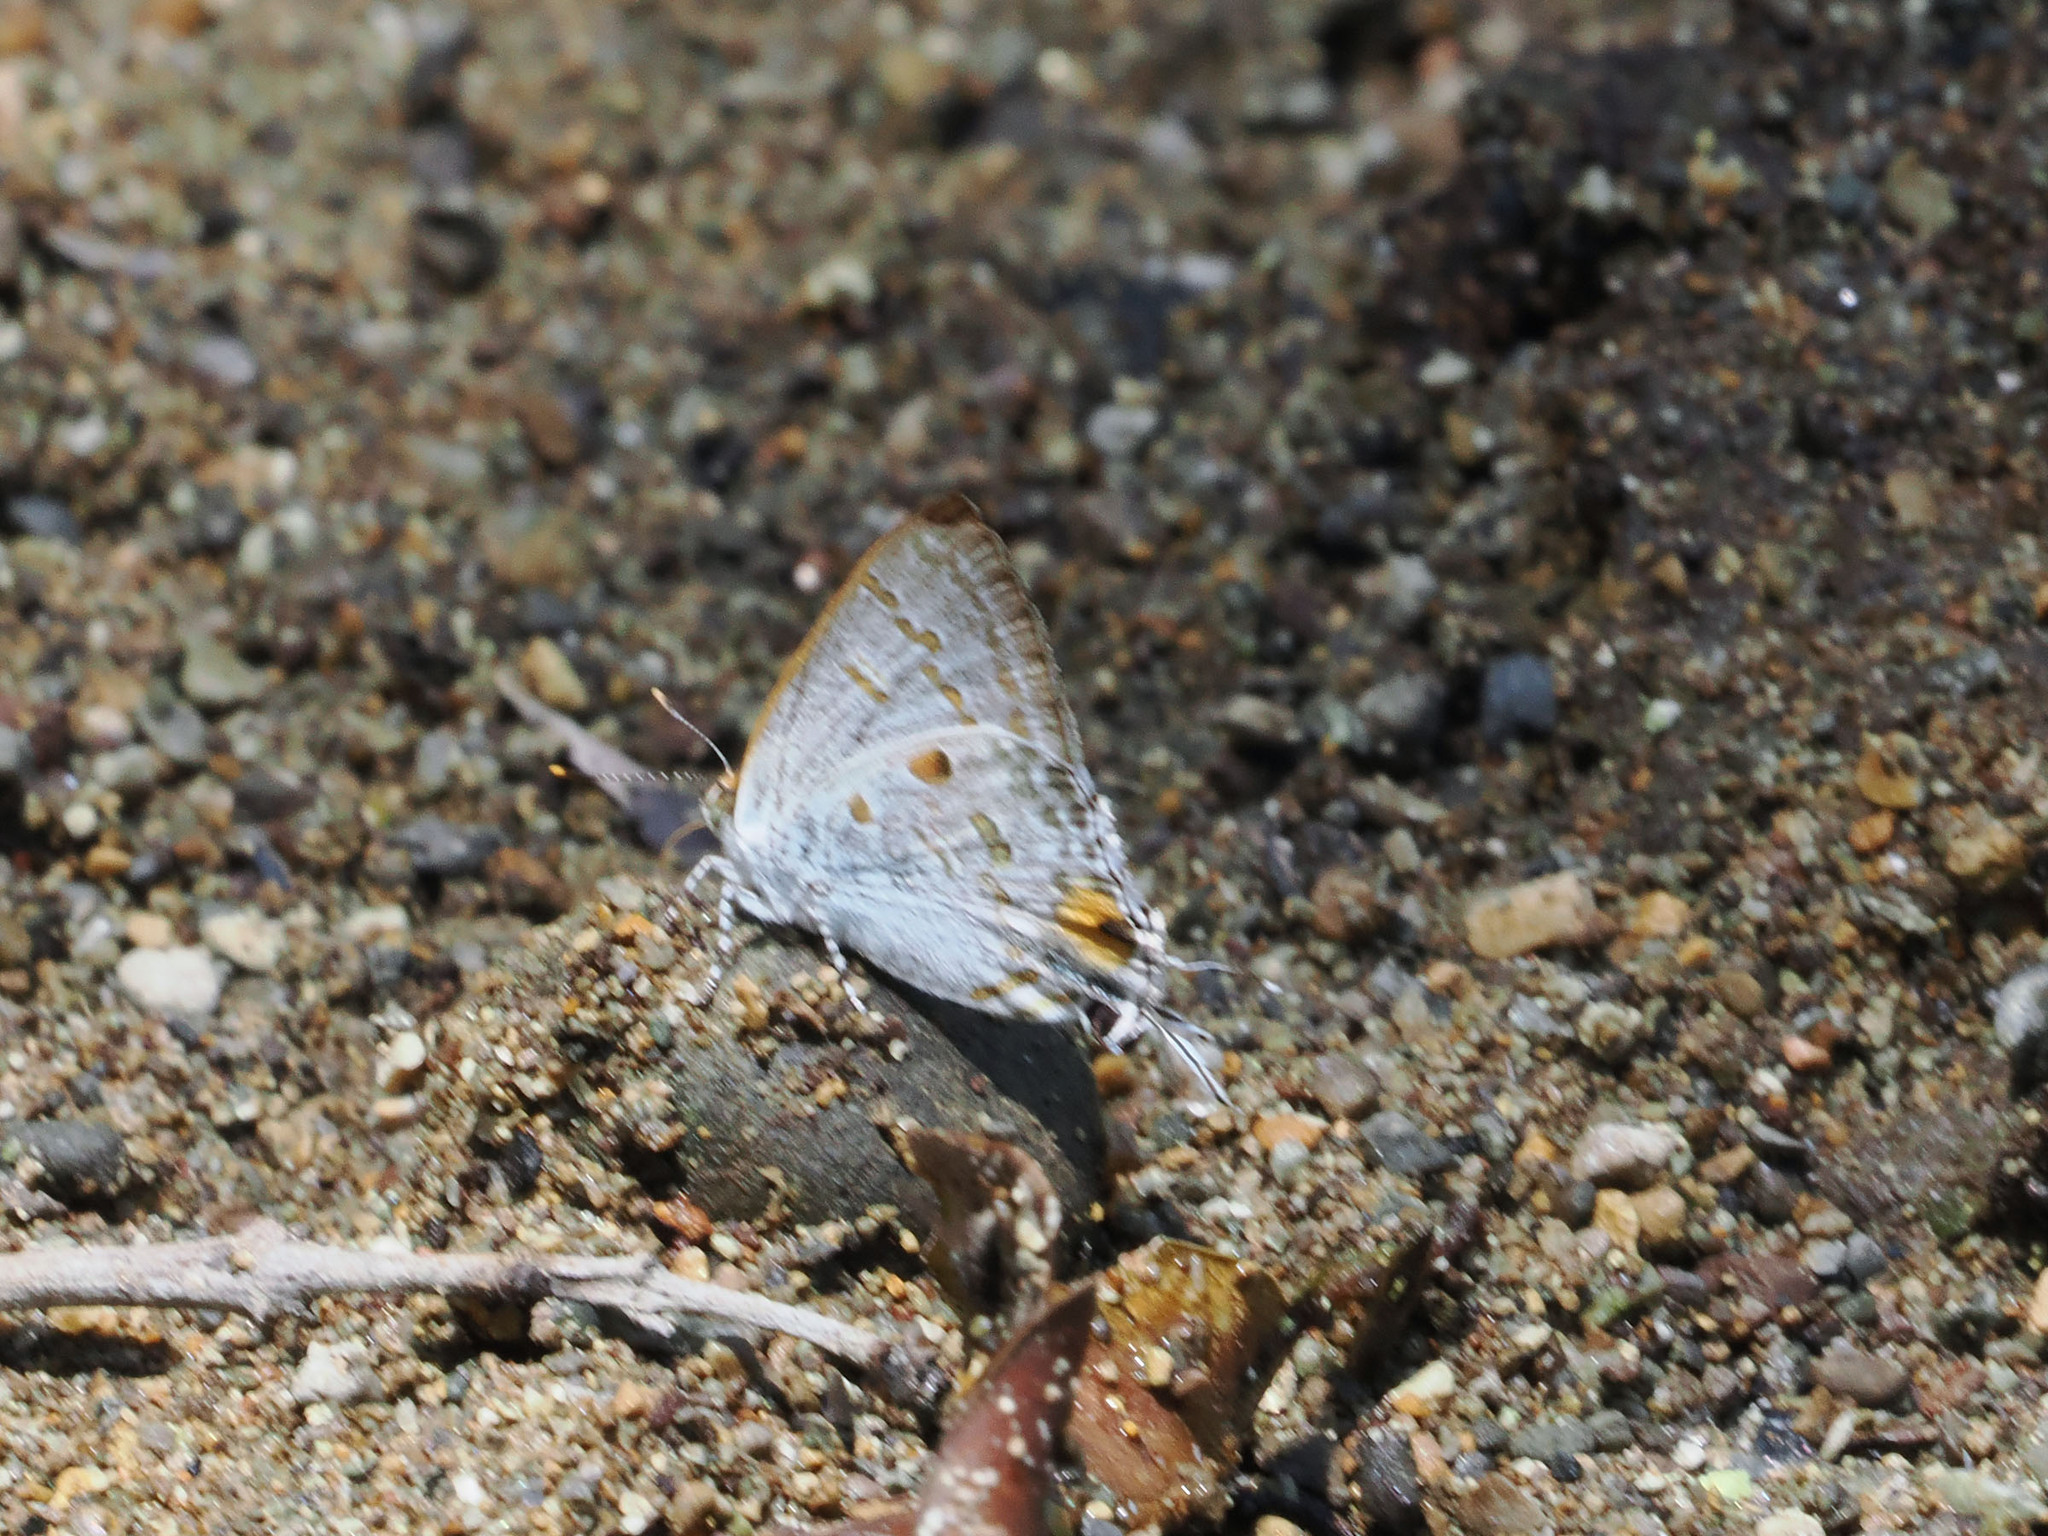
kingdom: Animalia
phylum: Arthropoda
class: Insecta
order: Lepidoptera
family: Lycaenidae
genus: Hypolycaena
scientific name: Hypolycaena sipylus
